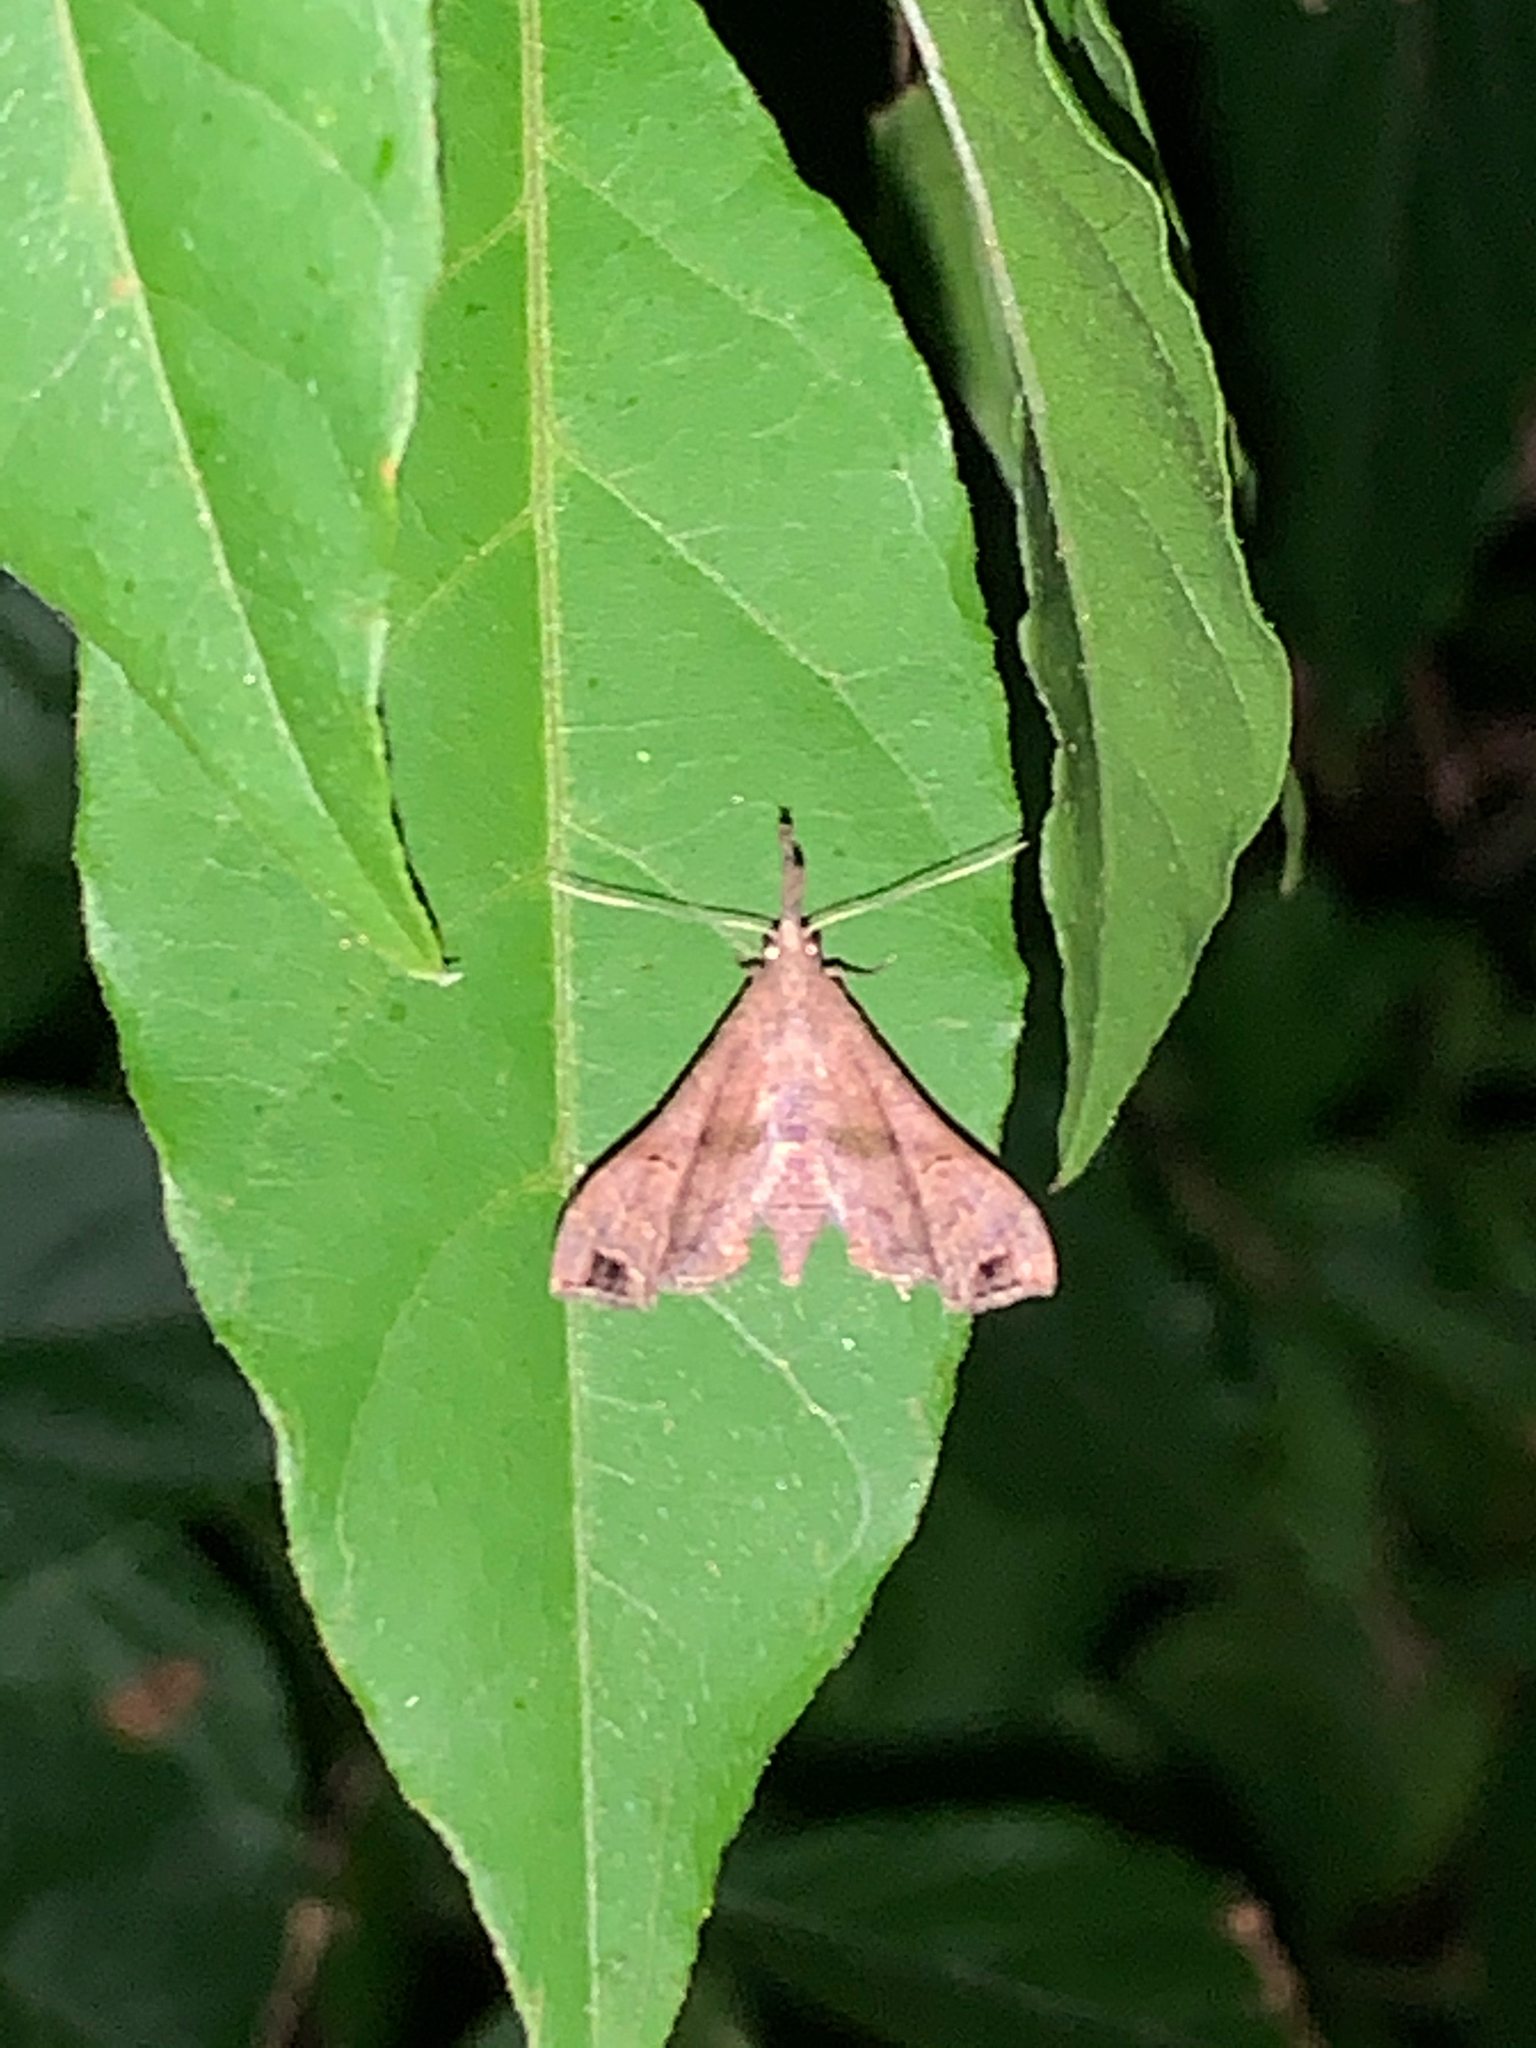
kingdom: Animalia
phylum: Arthropoda
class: Insecta
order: Lepidoptera
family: Erebidae
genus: Palthis
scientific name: Palthis asopialis
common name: Faint-spotted palthis moth
